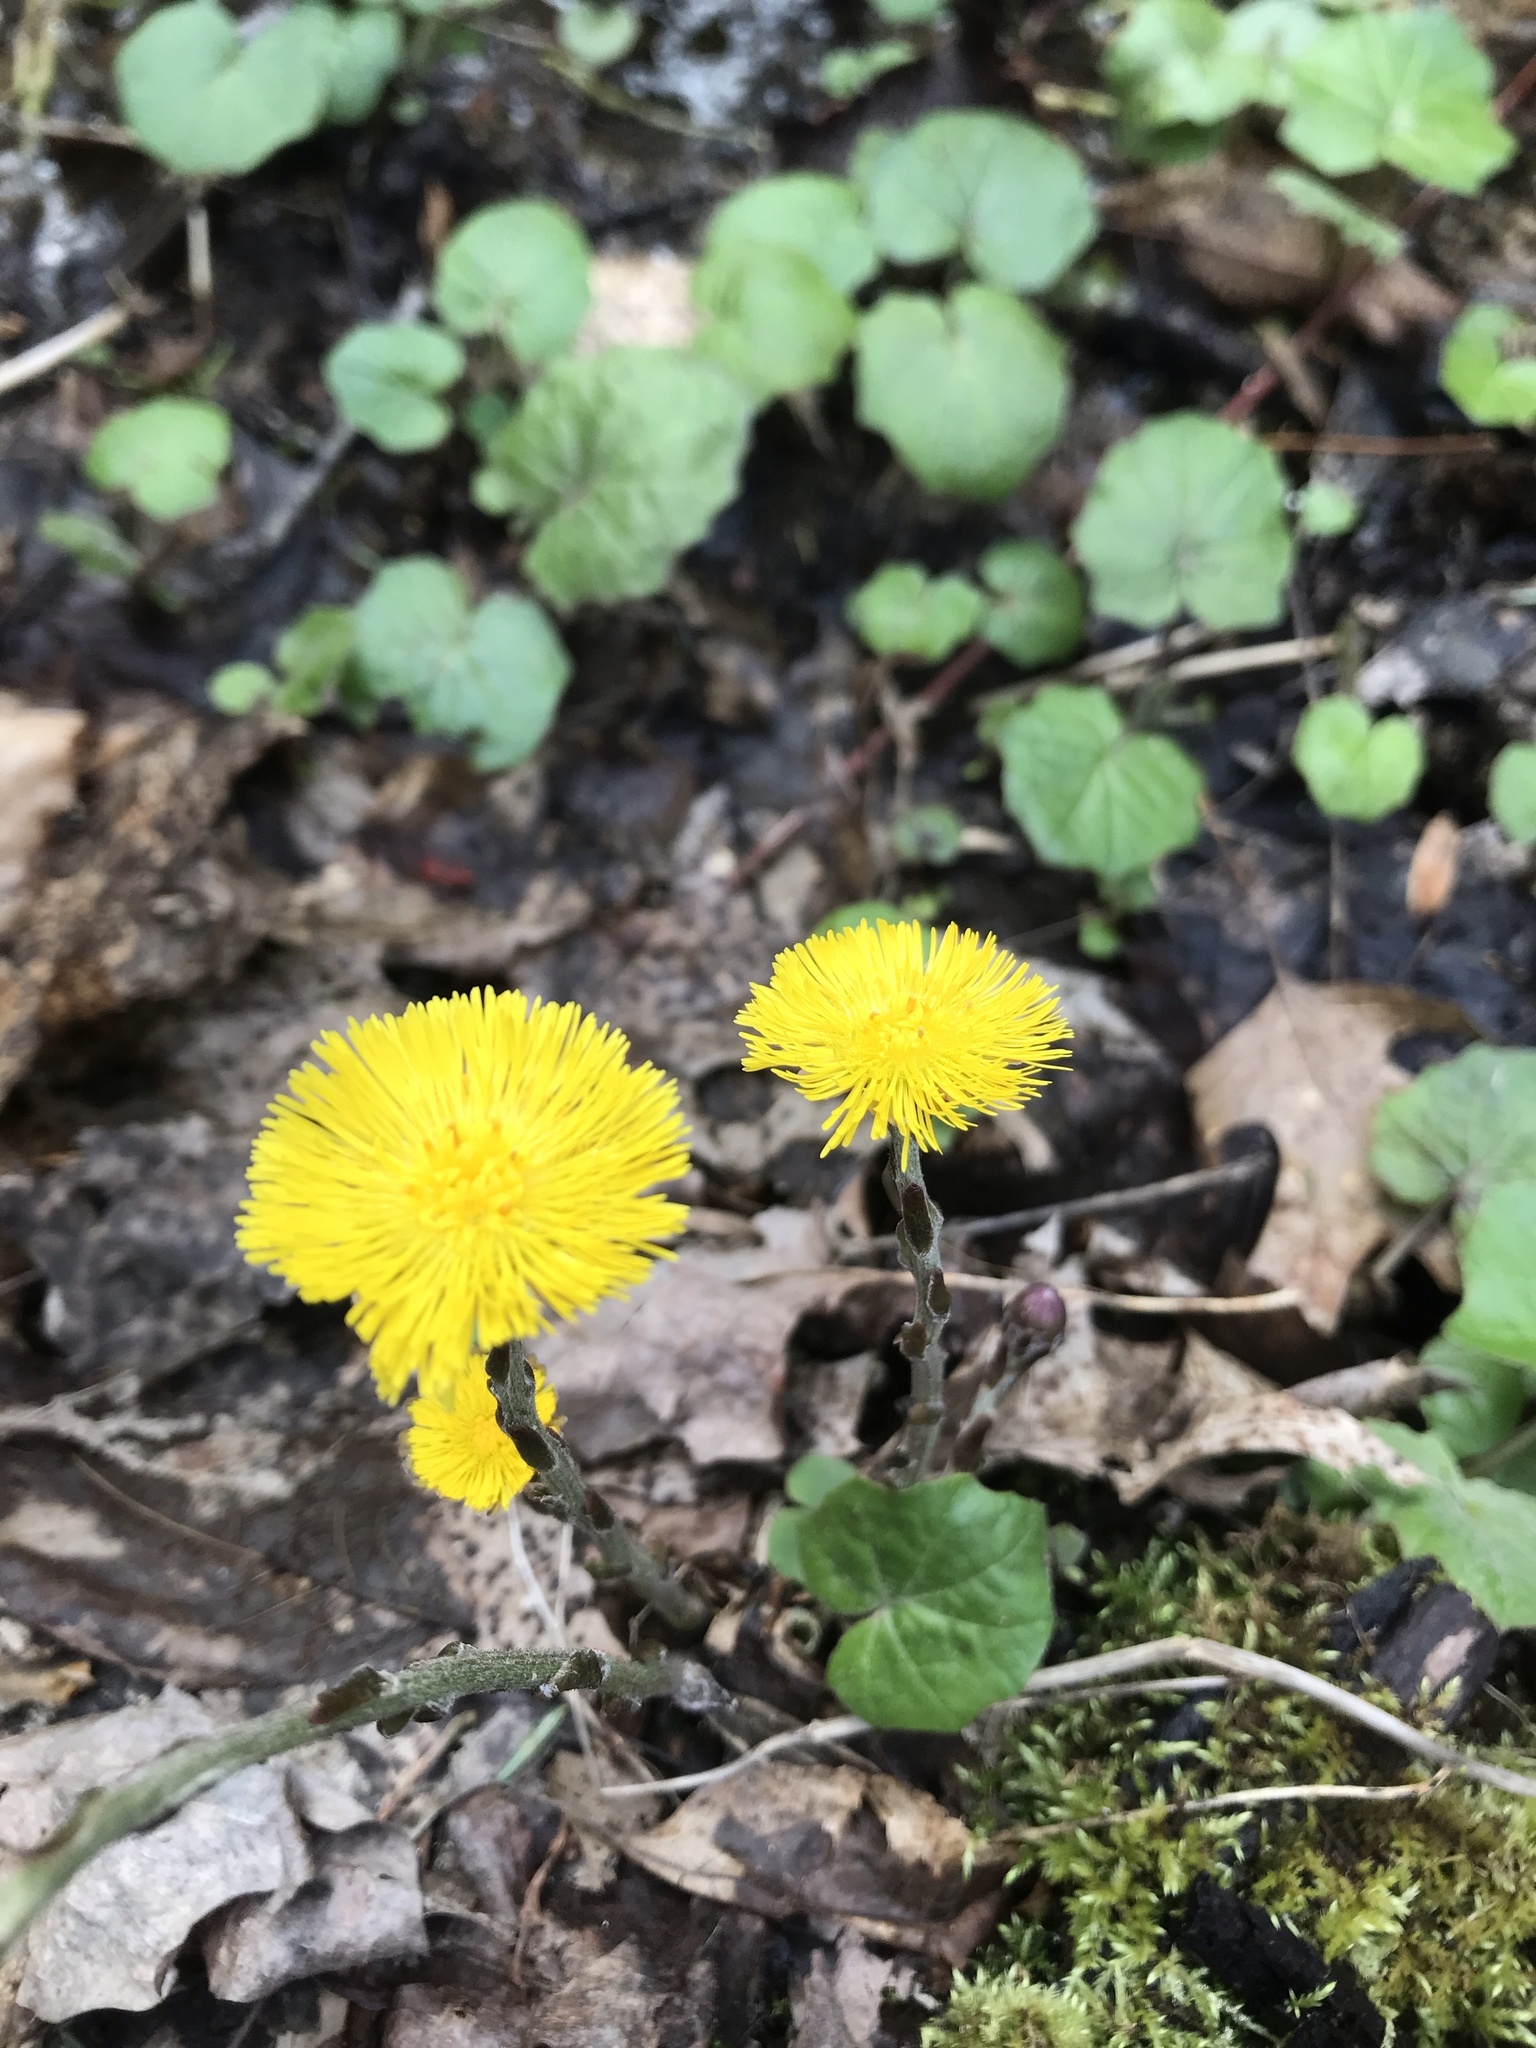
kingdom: Plantae
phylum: Tracheophyta
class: Magnoliopsida
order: Asterales
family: Asteraceae
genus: Tussilago
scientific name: Tussilago farfara
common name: Coltsfoot
